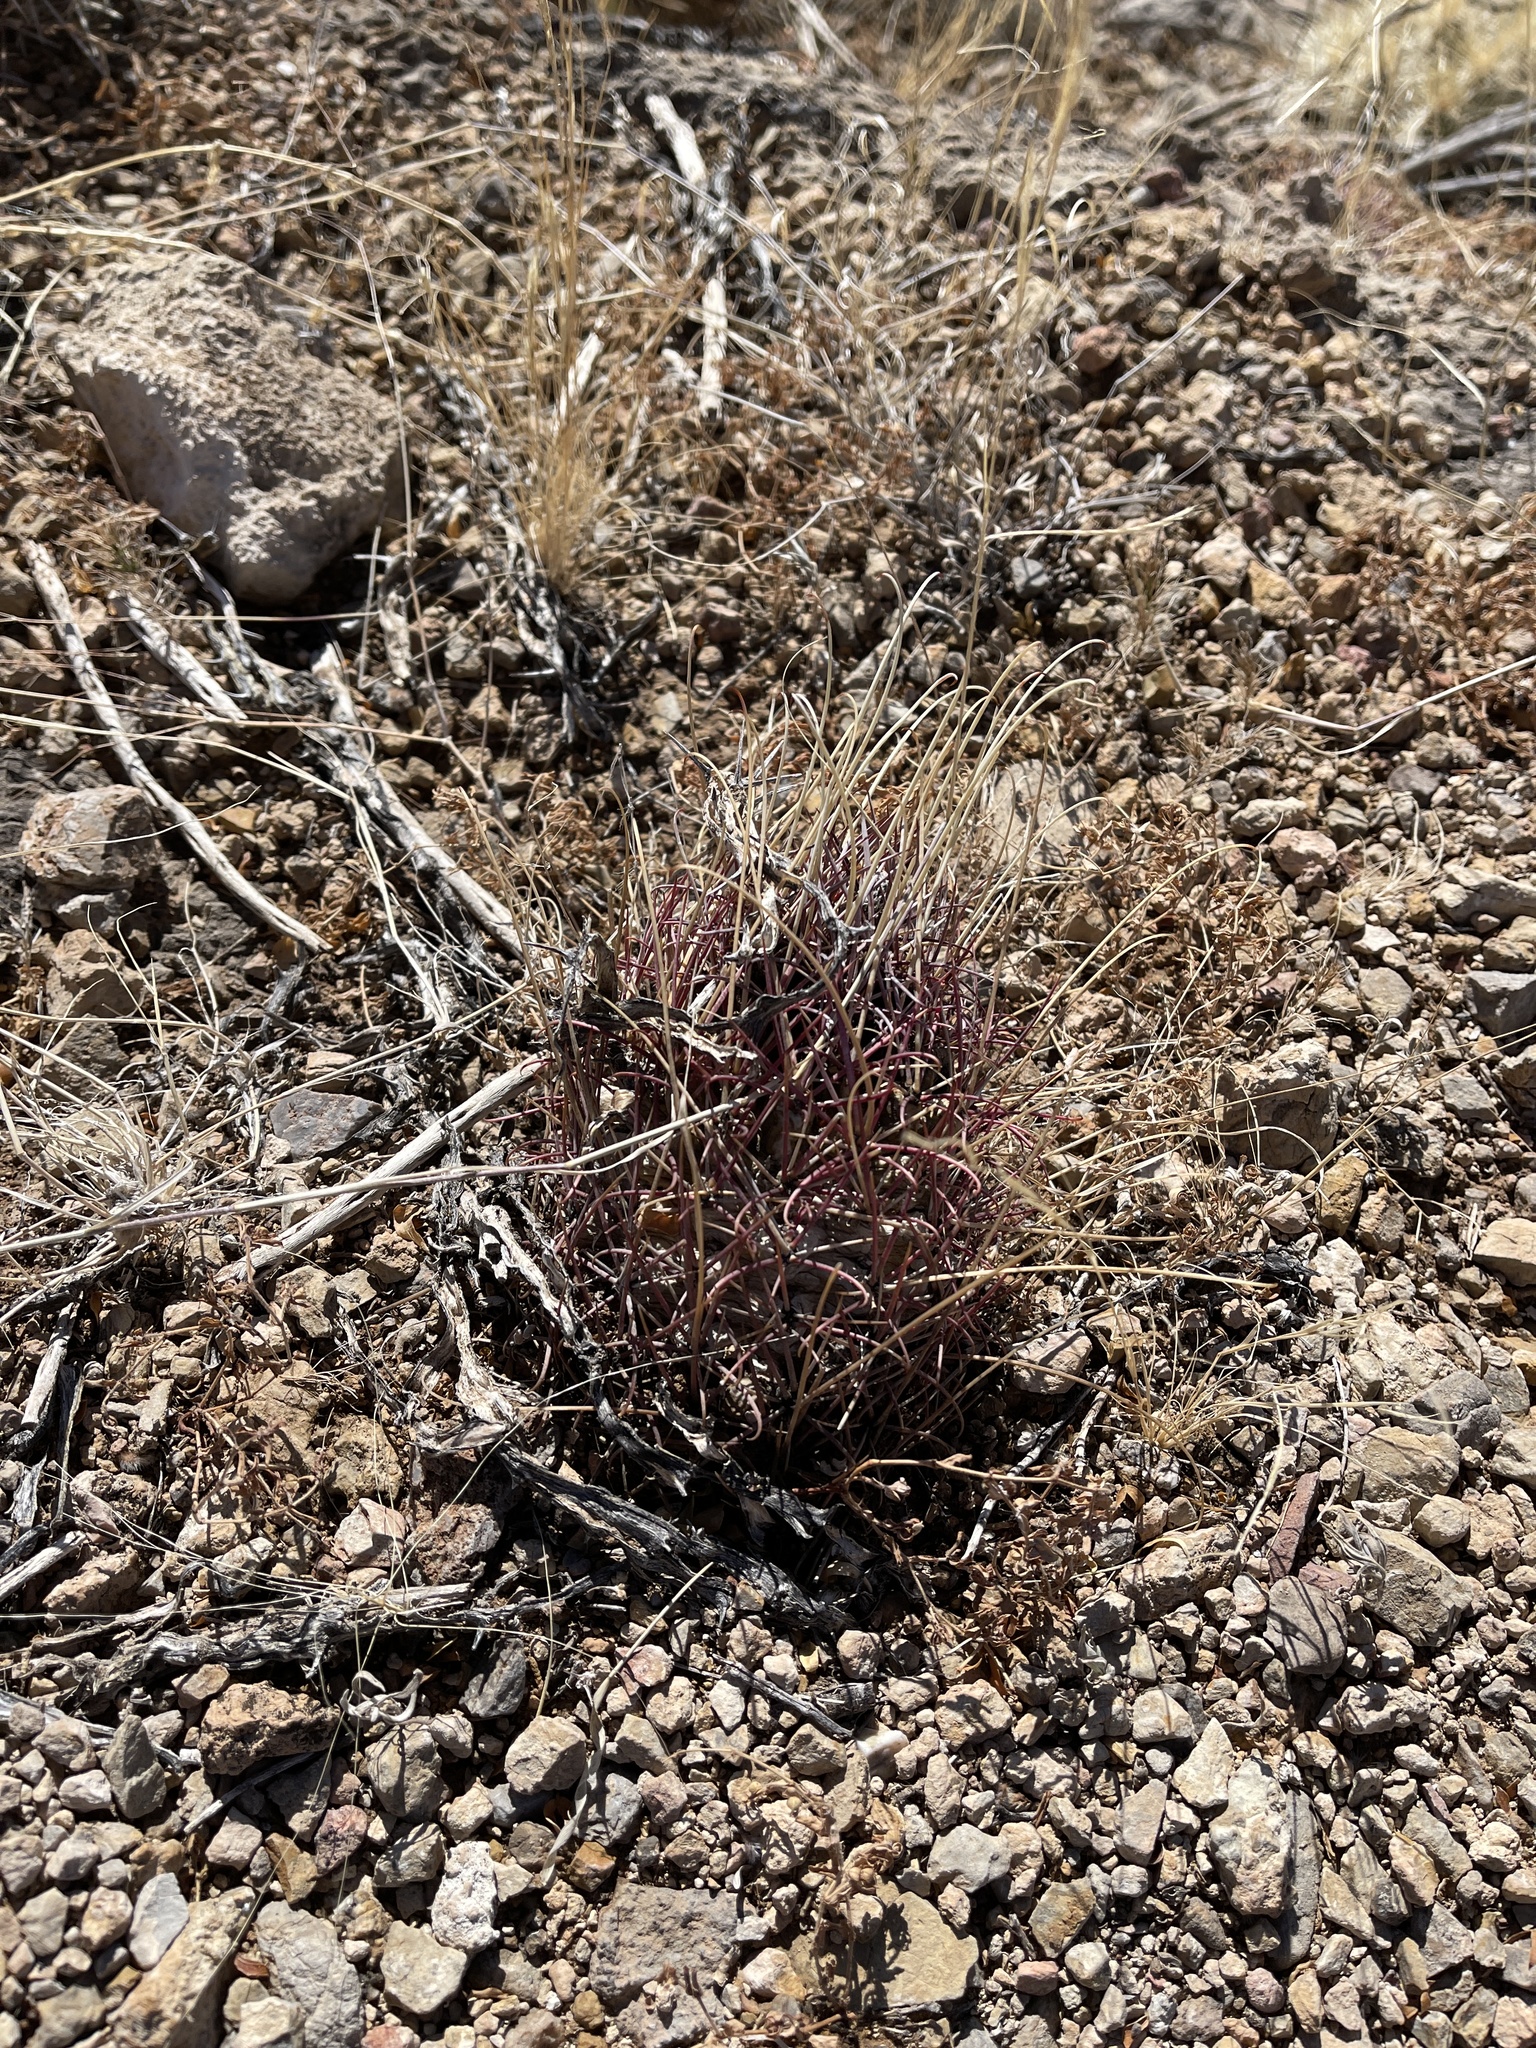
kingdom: Plantae
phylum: Tracheophyta
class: Magnoliopsida
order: Caryophyllales
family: Cactaceae
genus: Ferocactus
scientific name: Ferocactus uncinatus
